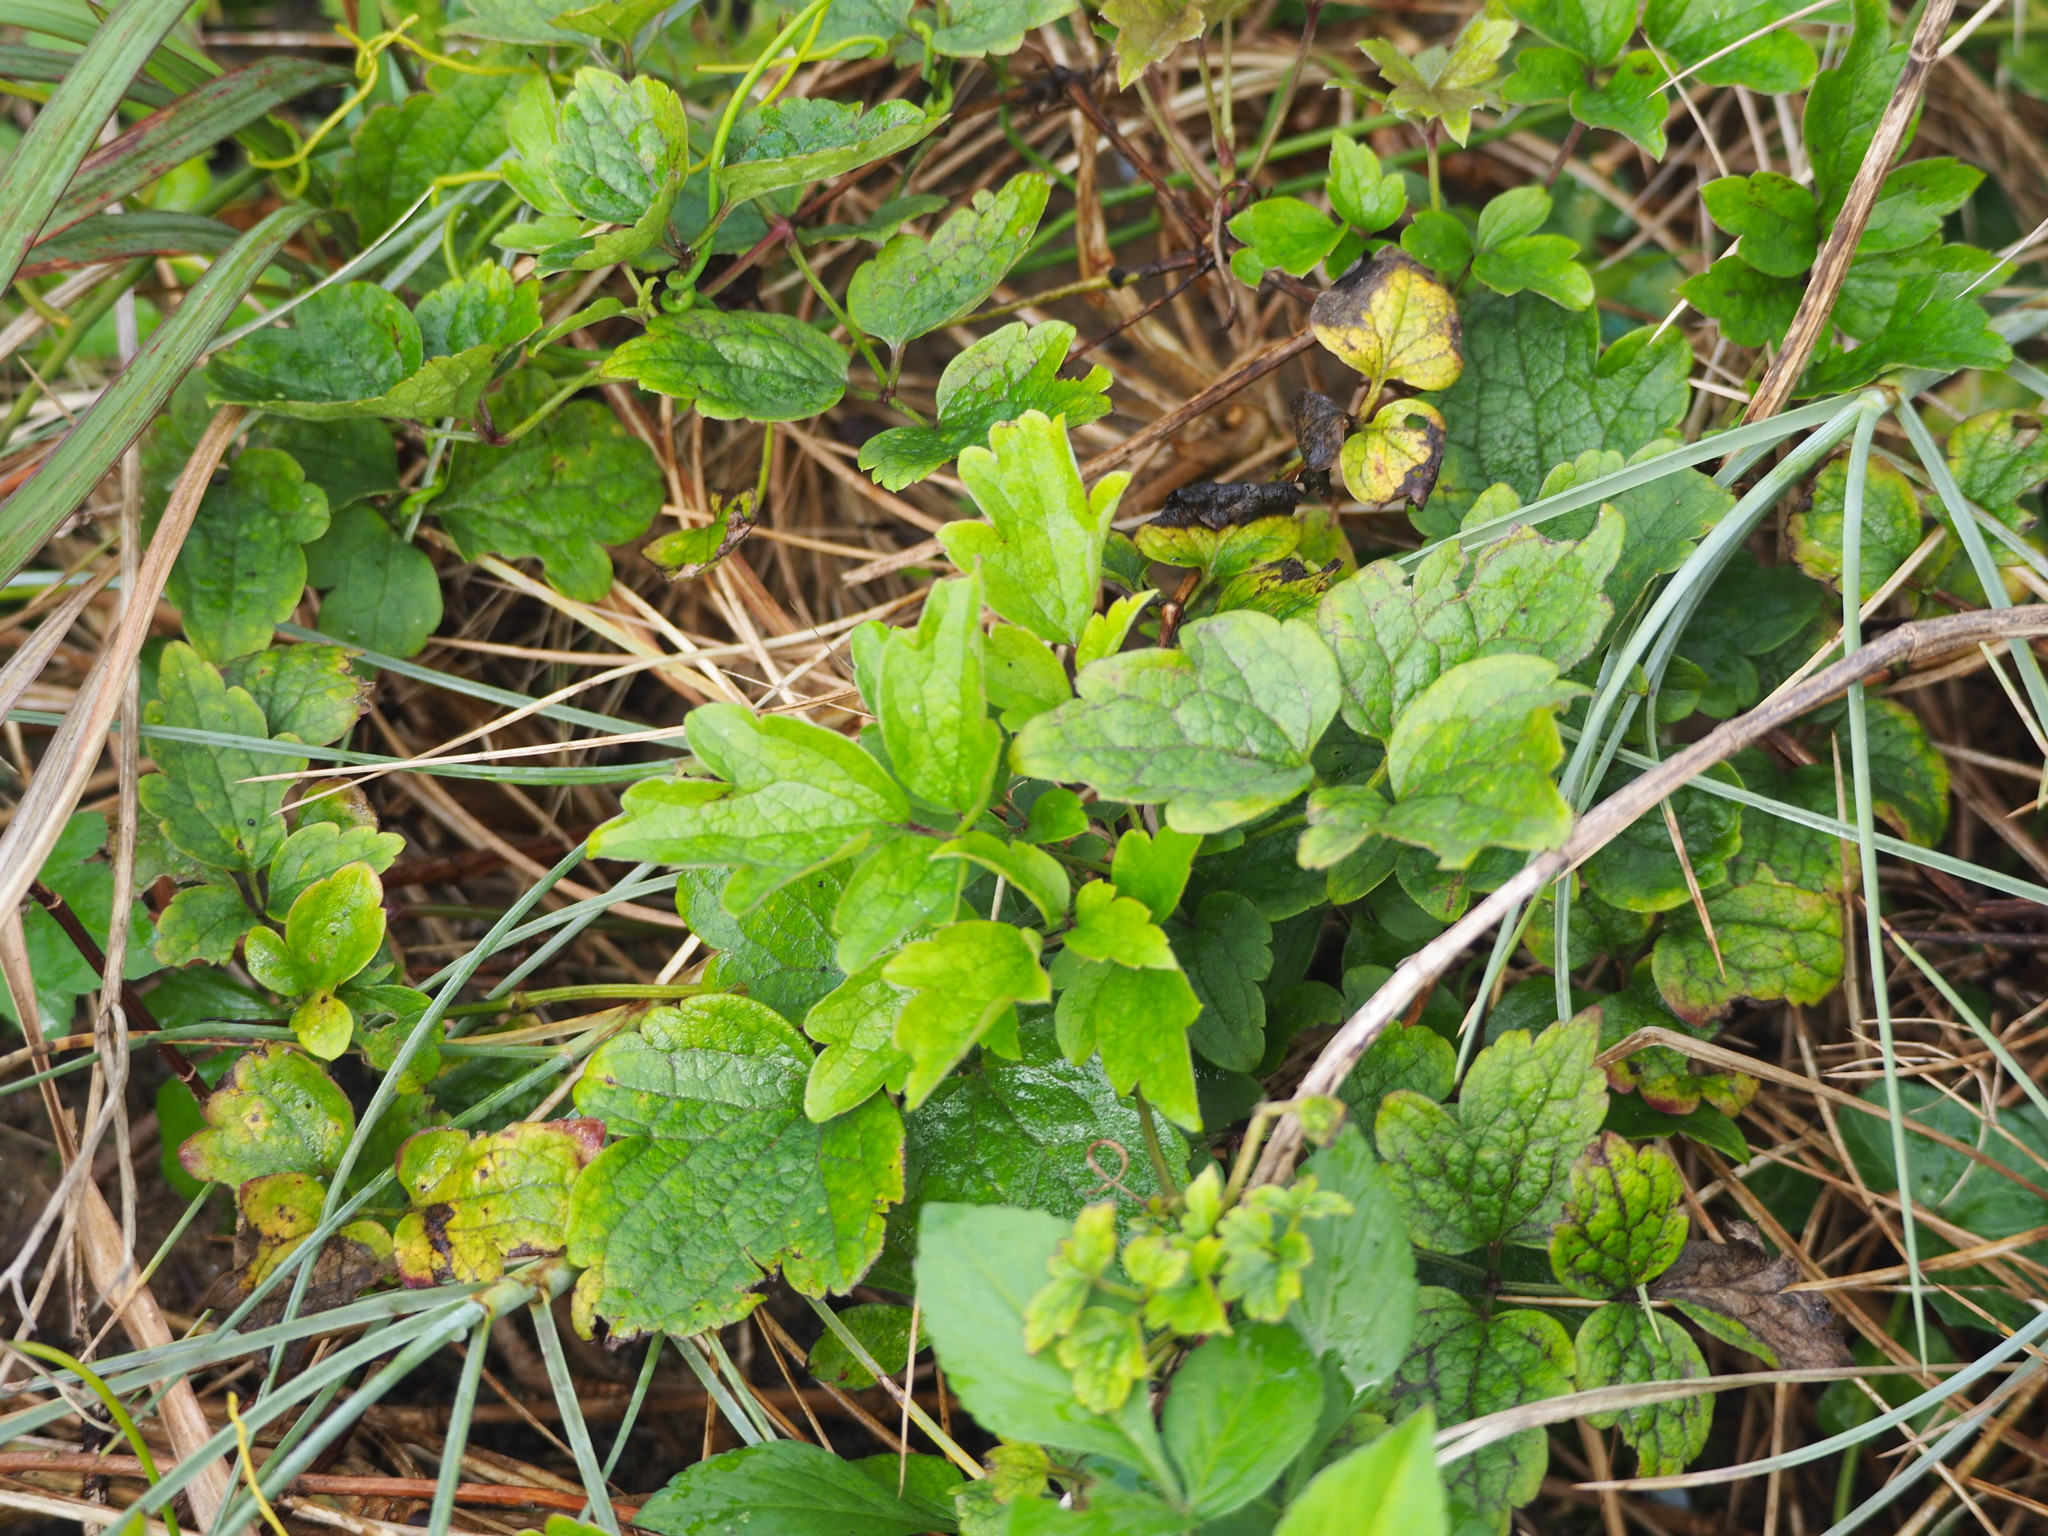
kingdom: Plantae
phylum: Tracheophyta
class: Magnoliopsida
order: Ranunculales
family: Ranunculaceae
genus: Clematis
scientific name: Clematis grata
